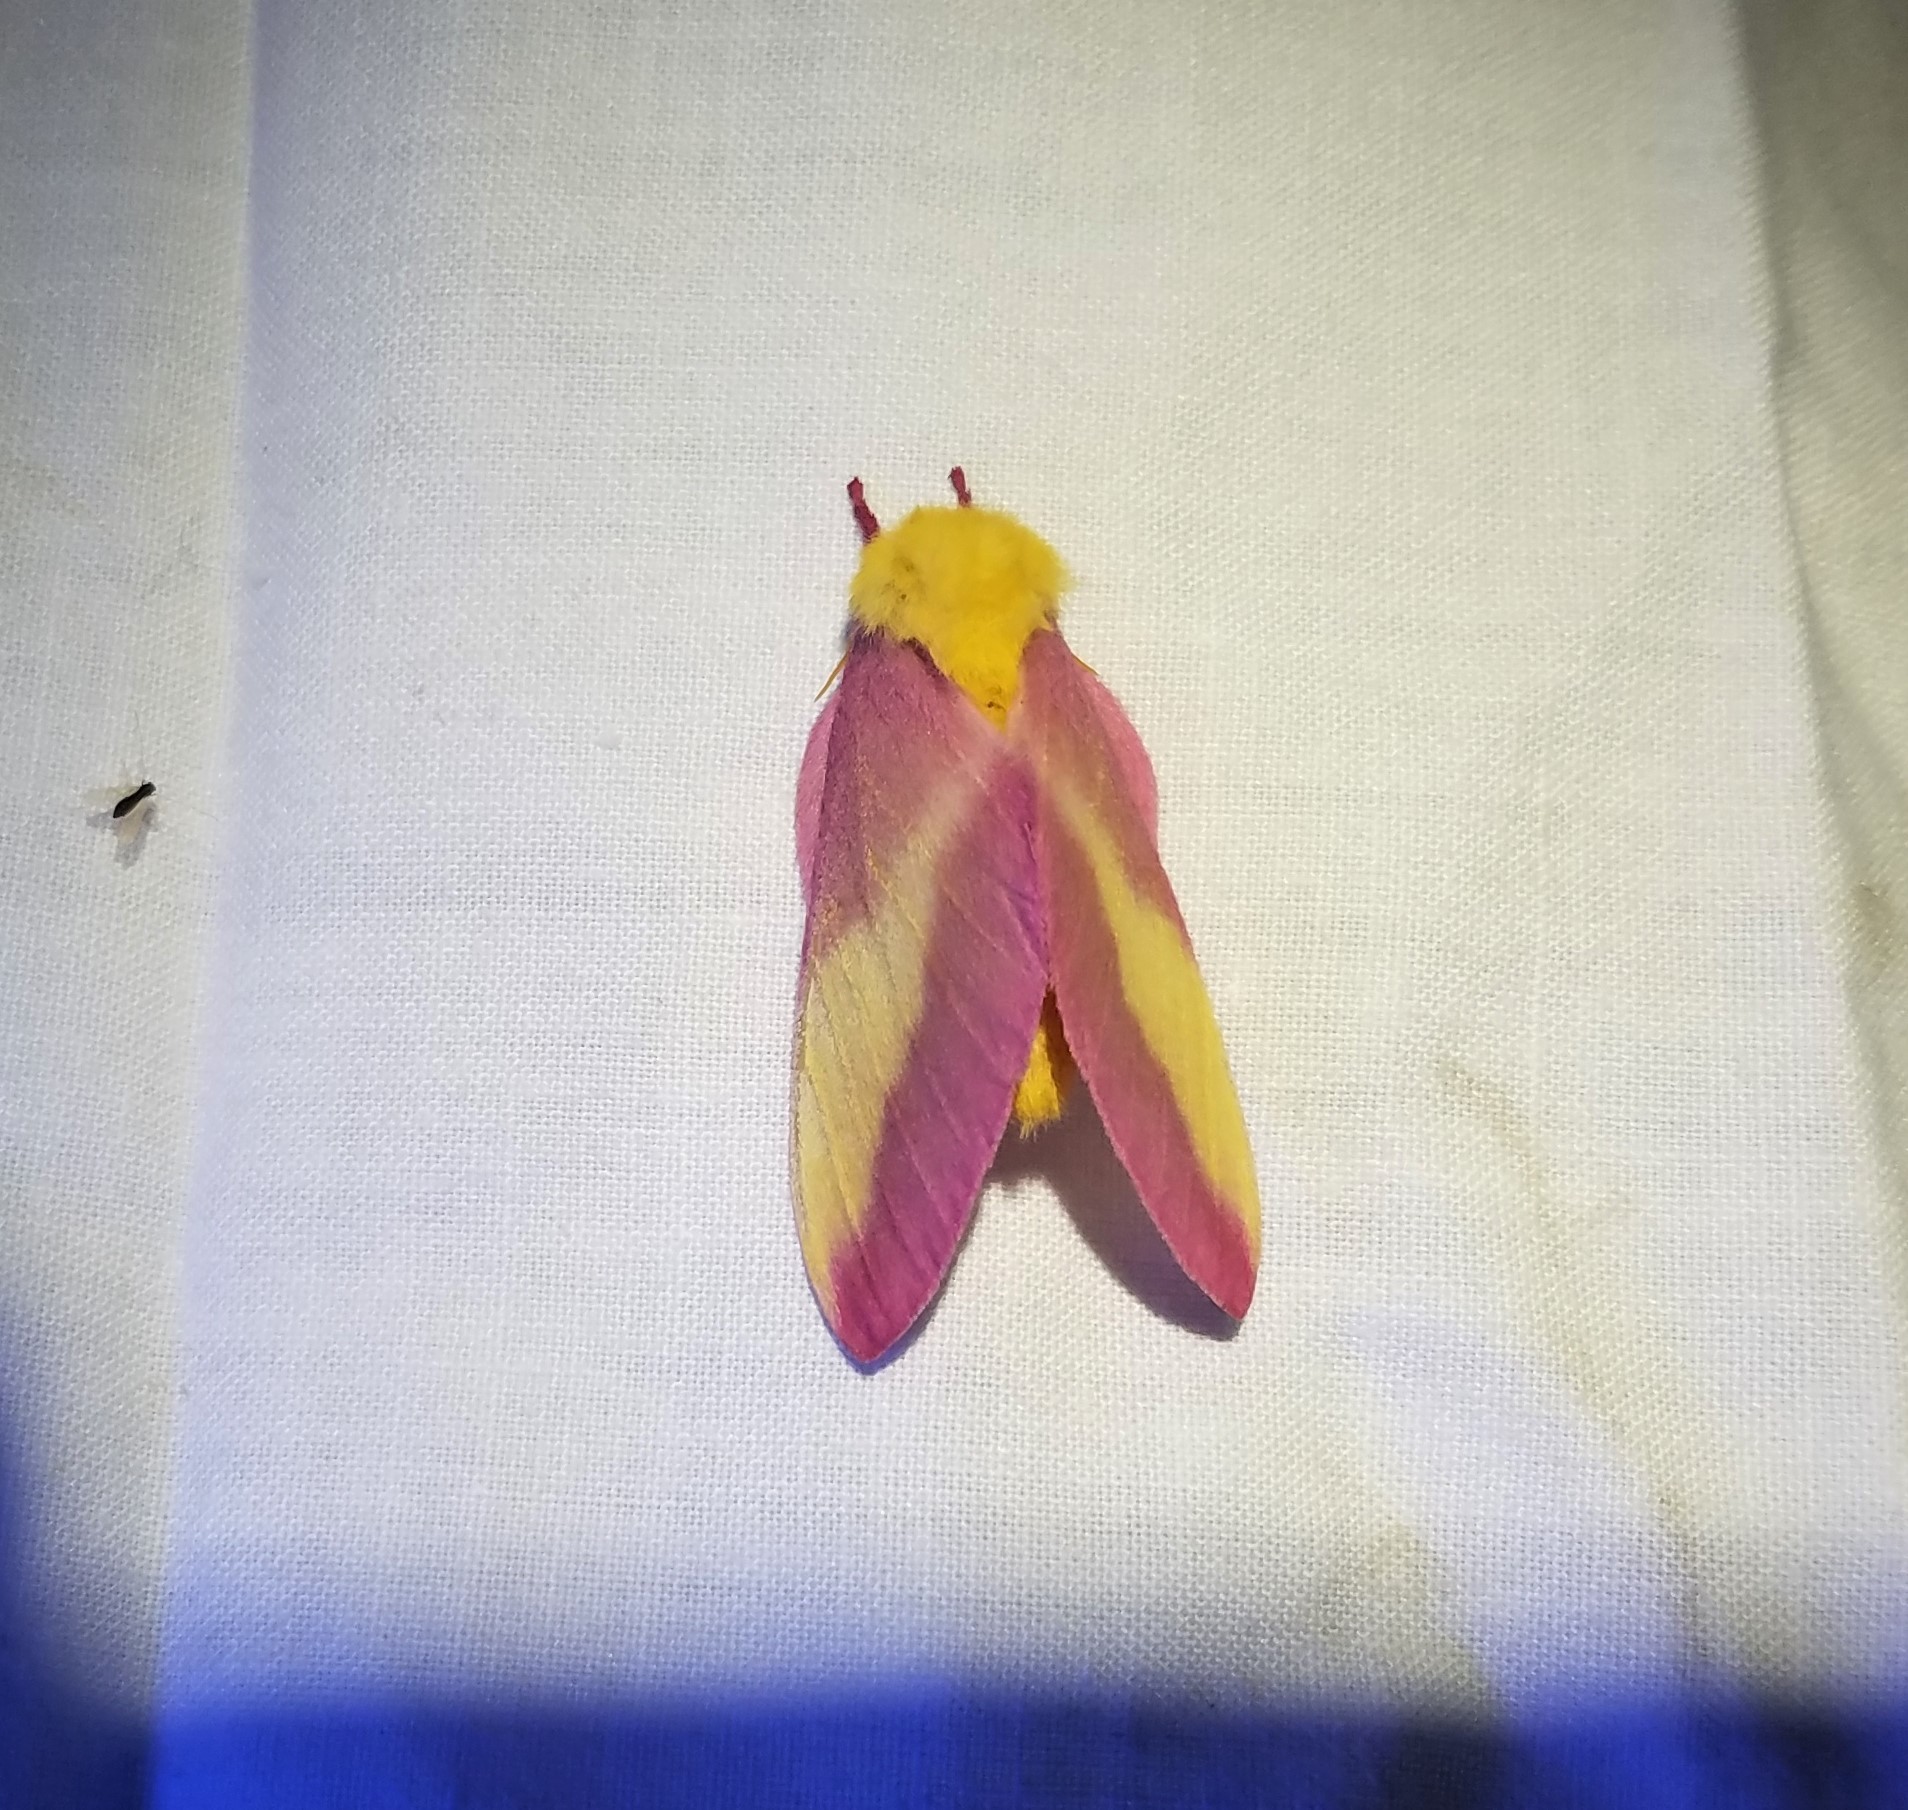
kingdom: Animalia
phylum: Arthropoda
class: Insecta
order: Lepidoptera
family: Saturniidae
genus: Dryocampa
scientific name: Dryocampa rubicunda
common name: Rosy maple moth
